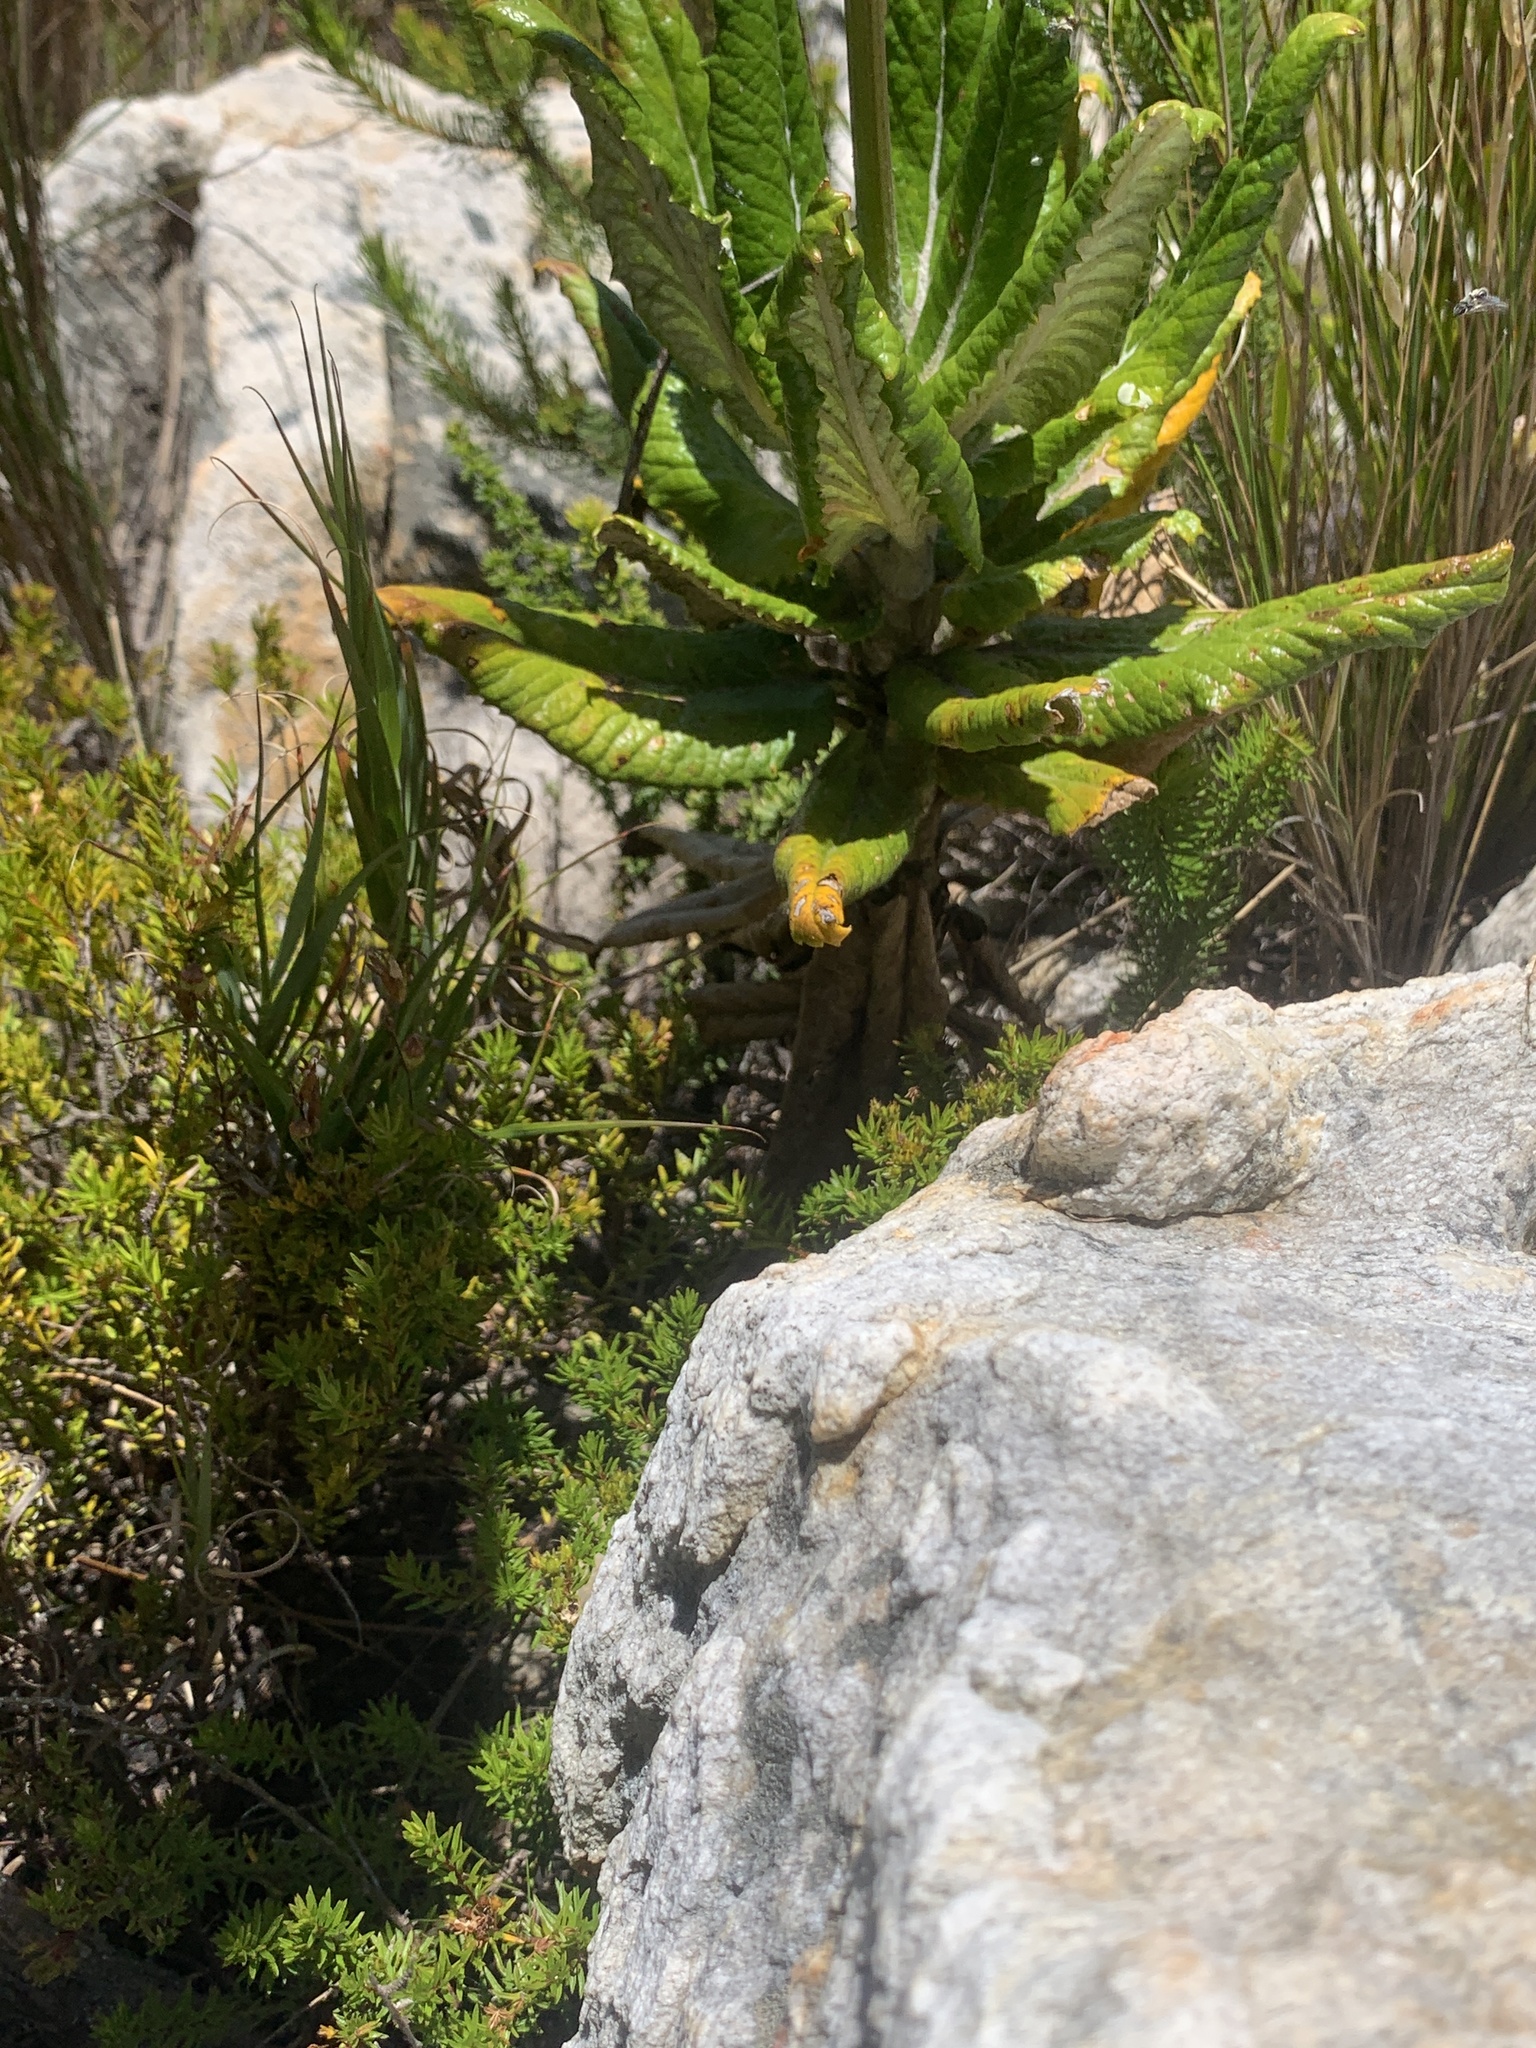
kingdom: Plantae
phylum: Tracheophyta
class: Magnoliopsida
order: Apiales
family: Apiaceae
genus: Hermas
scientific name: Hermas villosa
